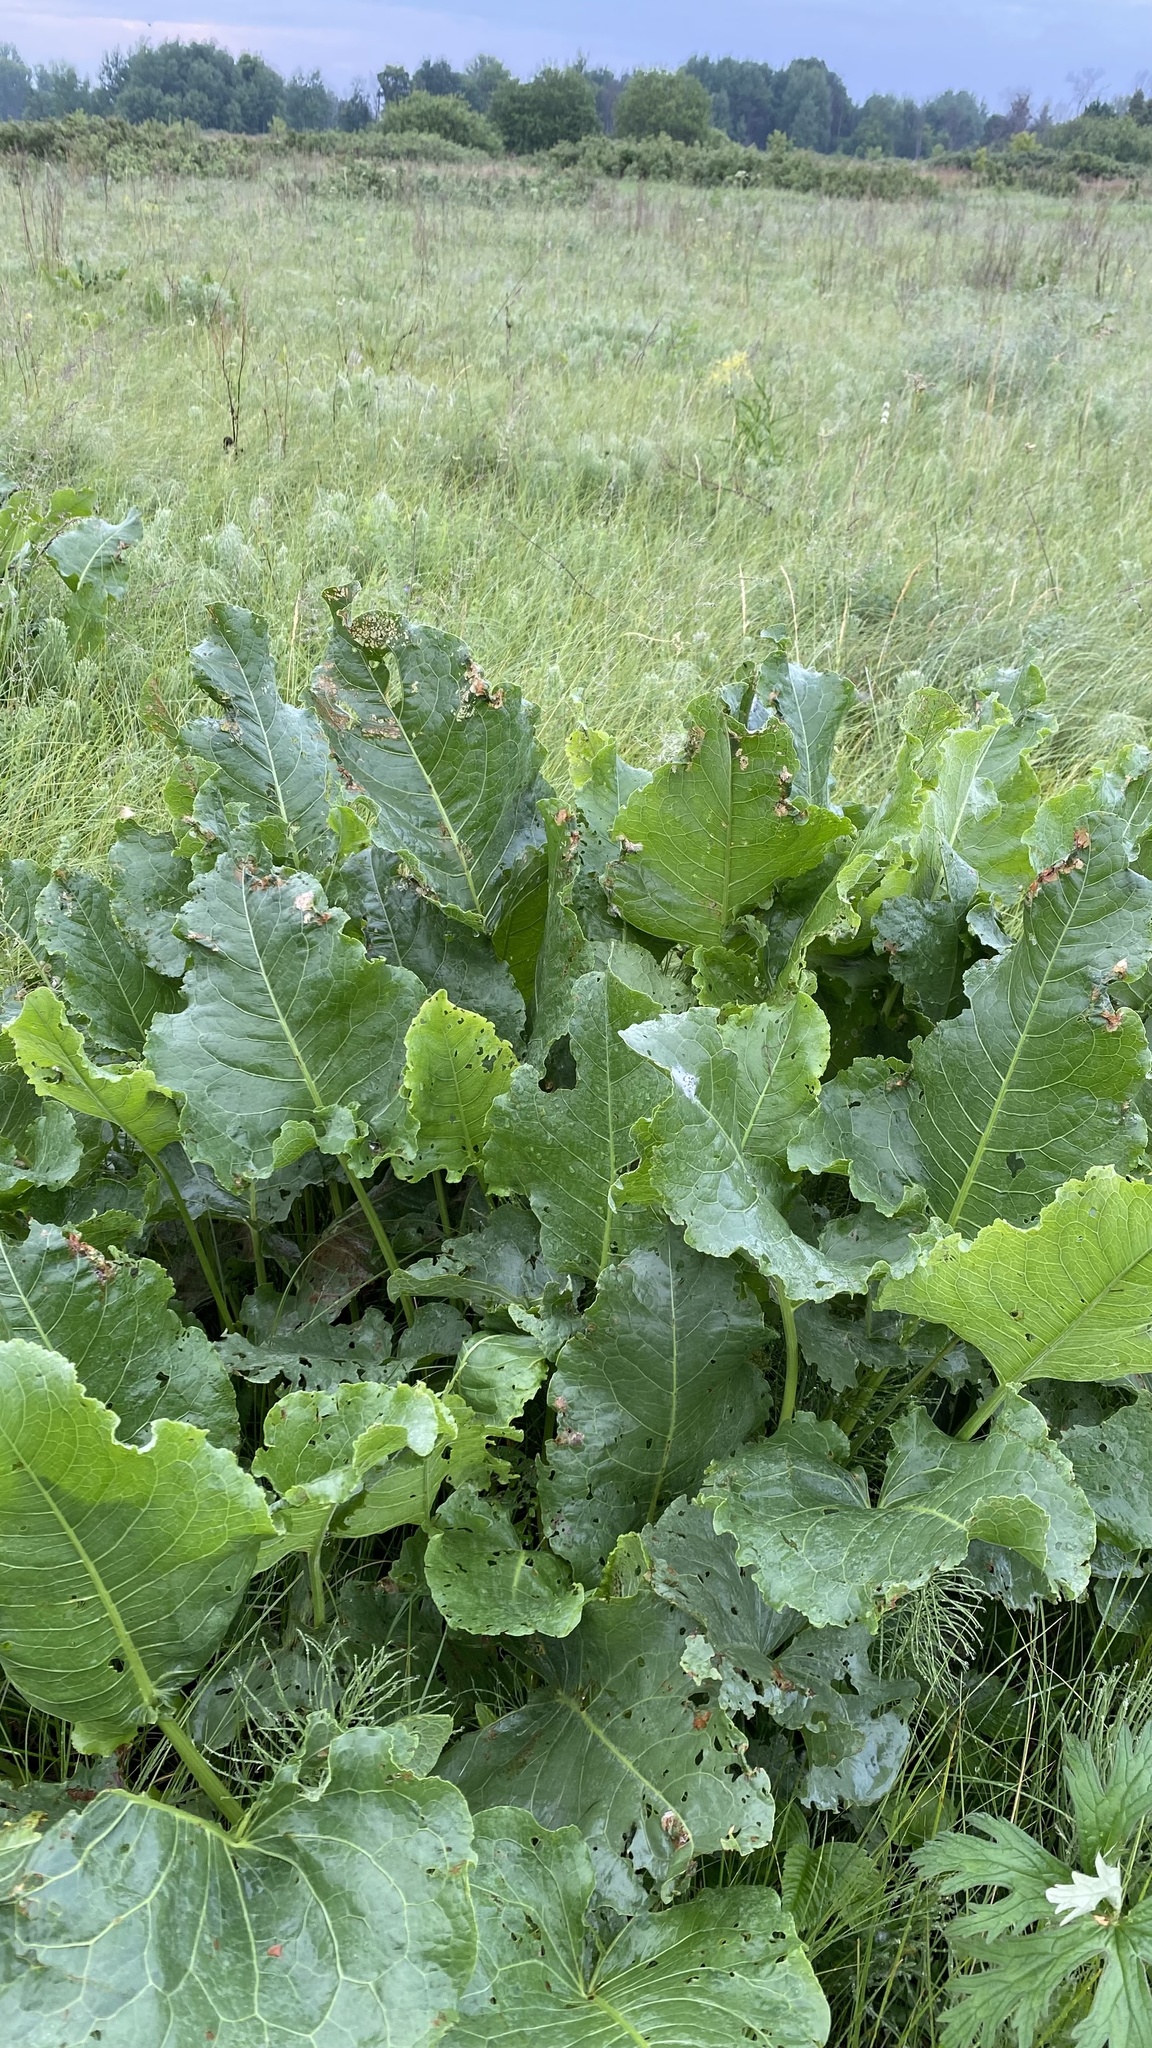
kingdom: Plantae
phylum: Tracheophyta
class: Magnoliopsida
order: Caryophyllales
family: Polygonaceae
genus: Rumex
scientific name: Rumex confertus
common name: Russian dock
